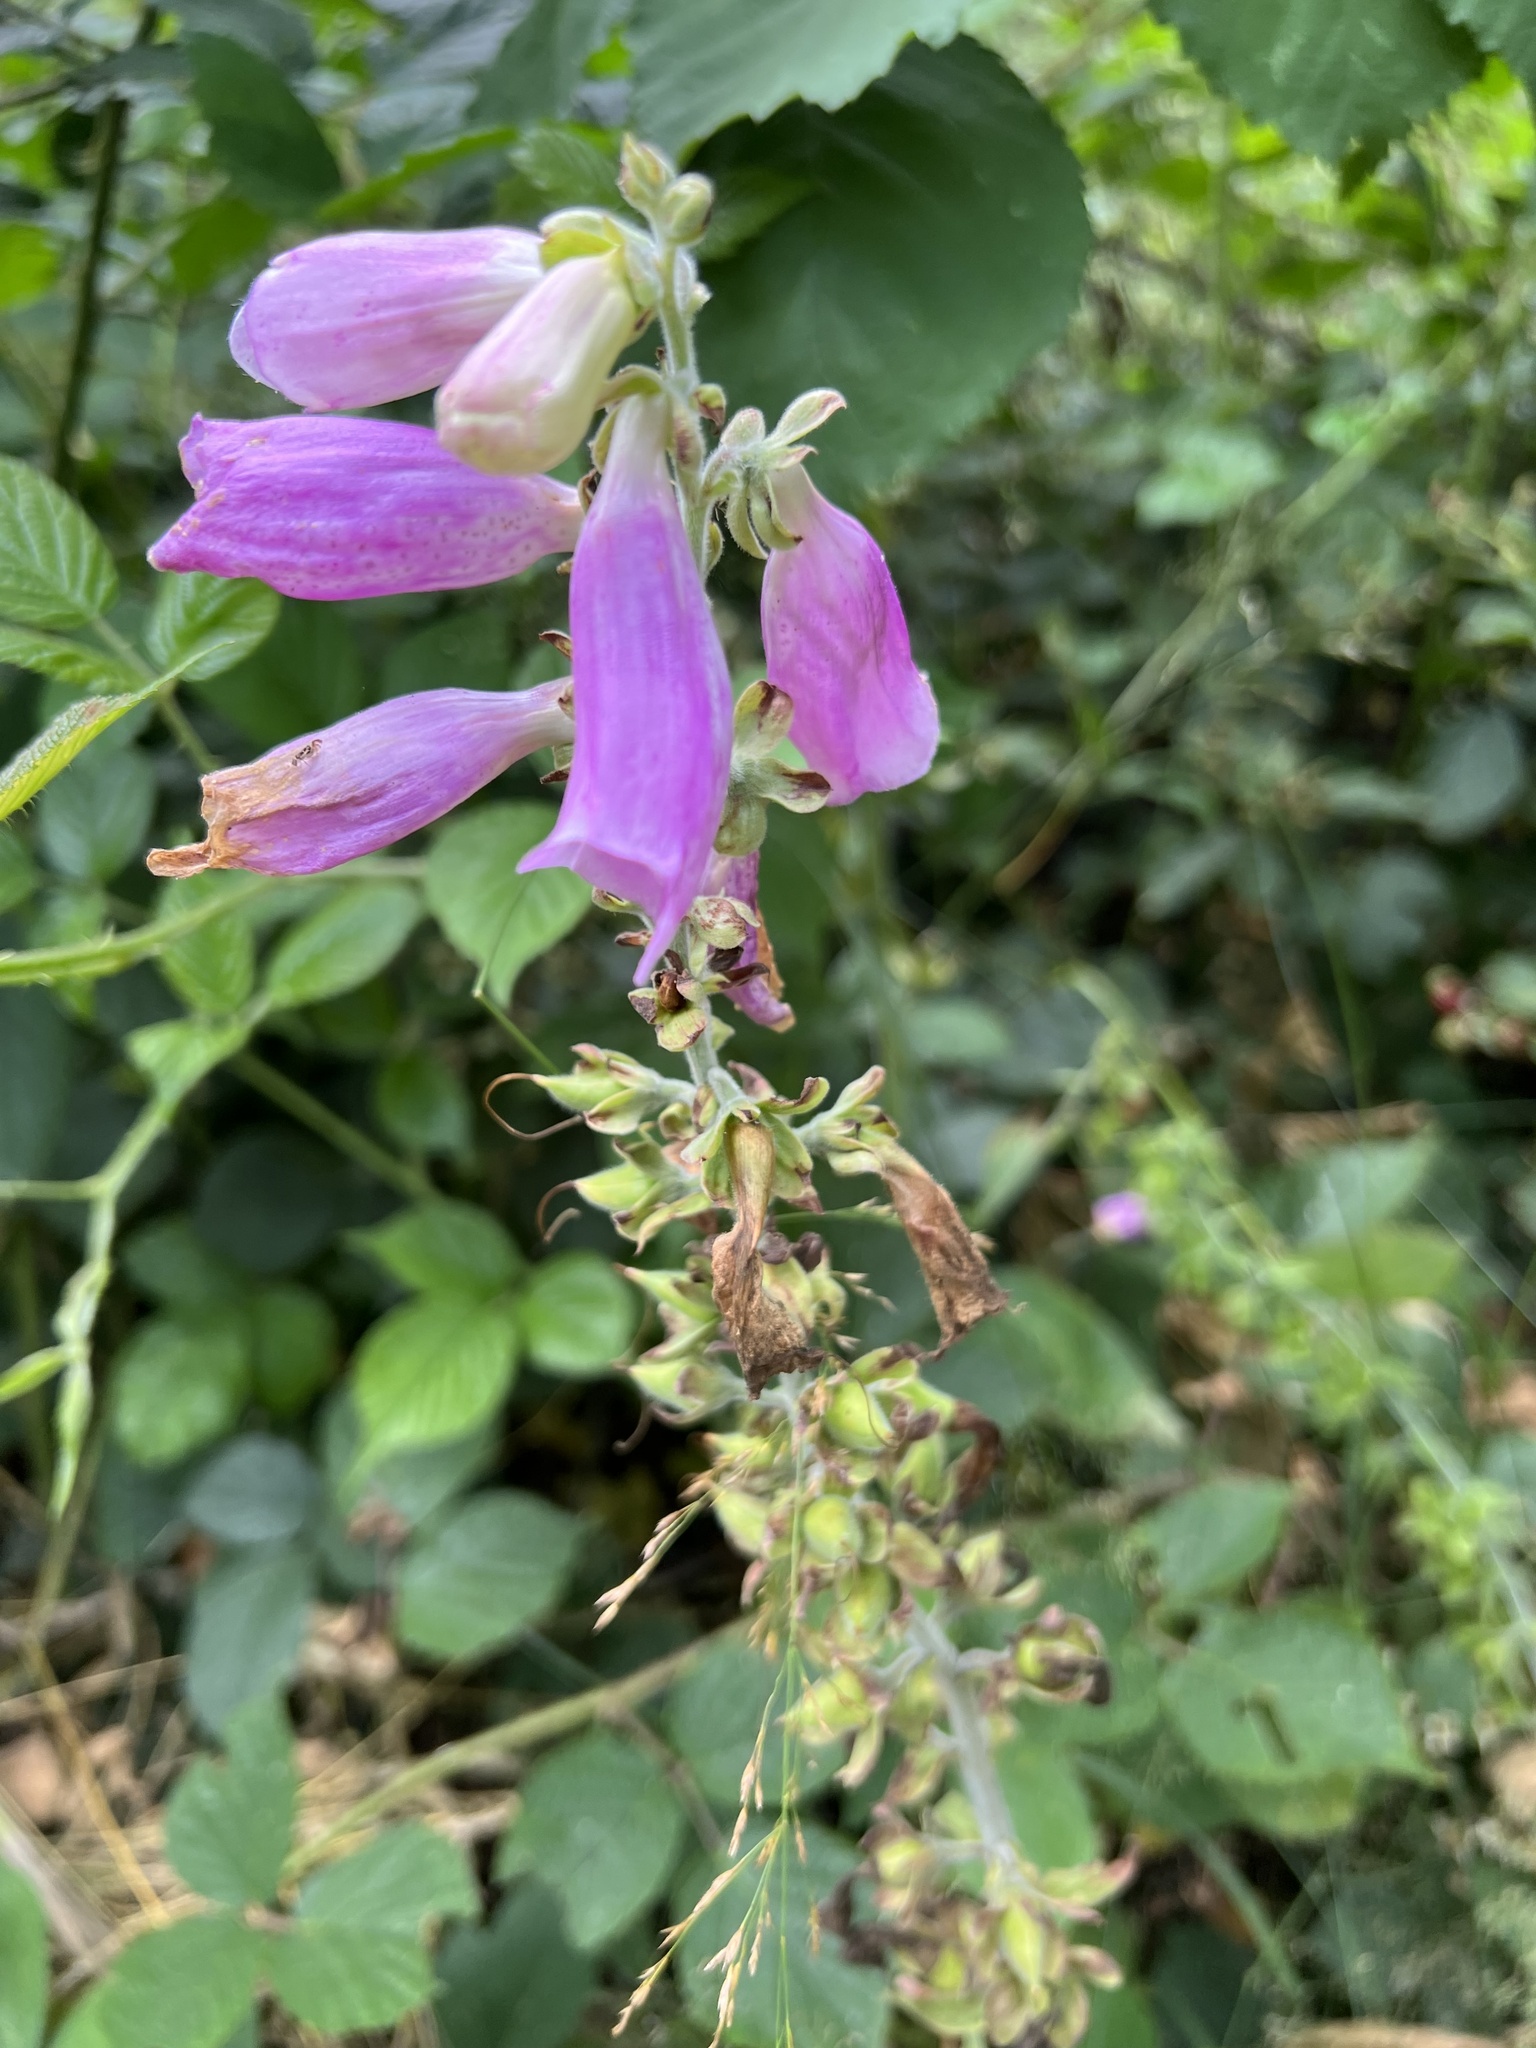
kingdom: Plantae
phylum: Tracheophyta
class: Magnoliopsida
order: Lamiales
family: Plantaginaceae
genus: Digitalis
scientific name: Digitalis purpurea
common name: Foxglove
